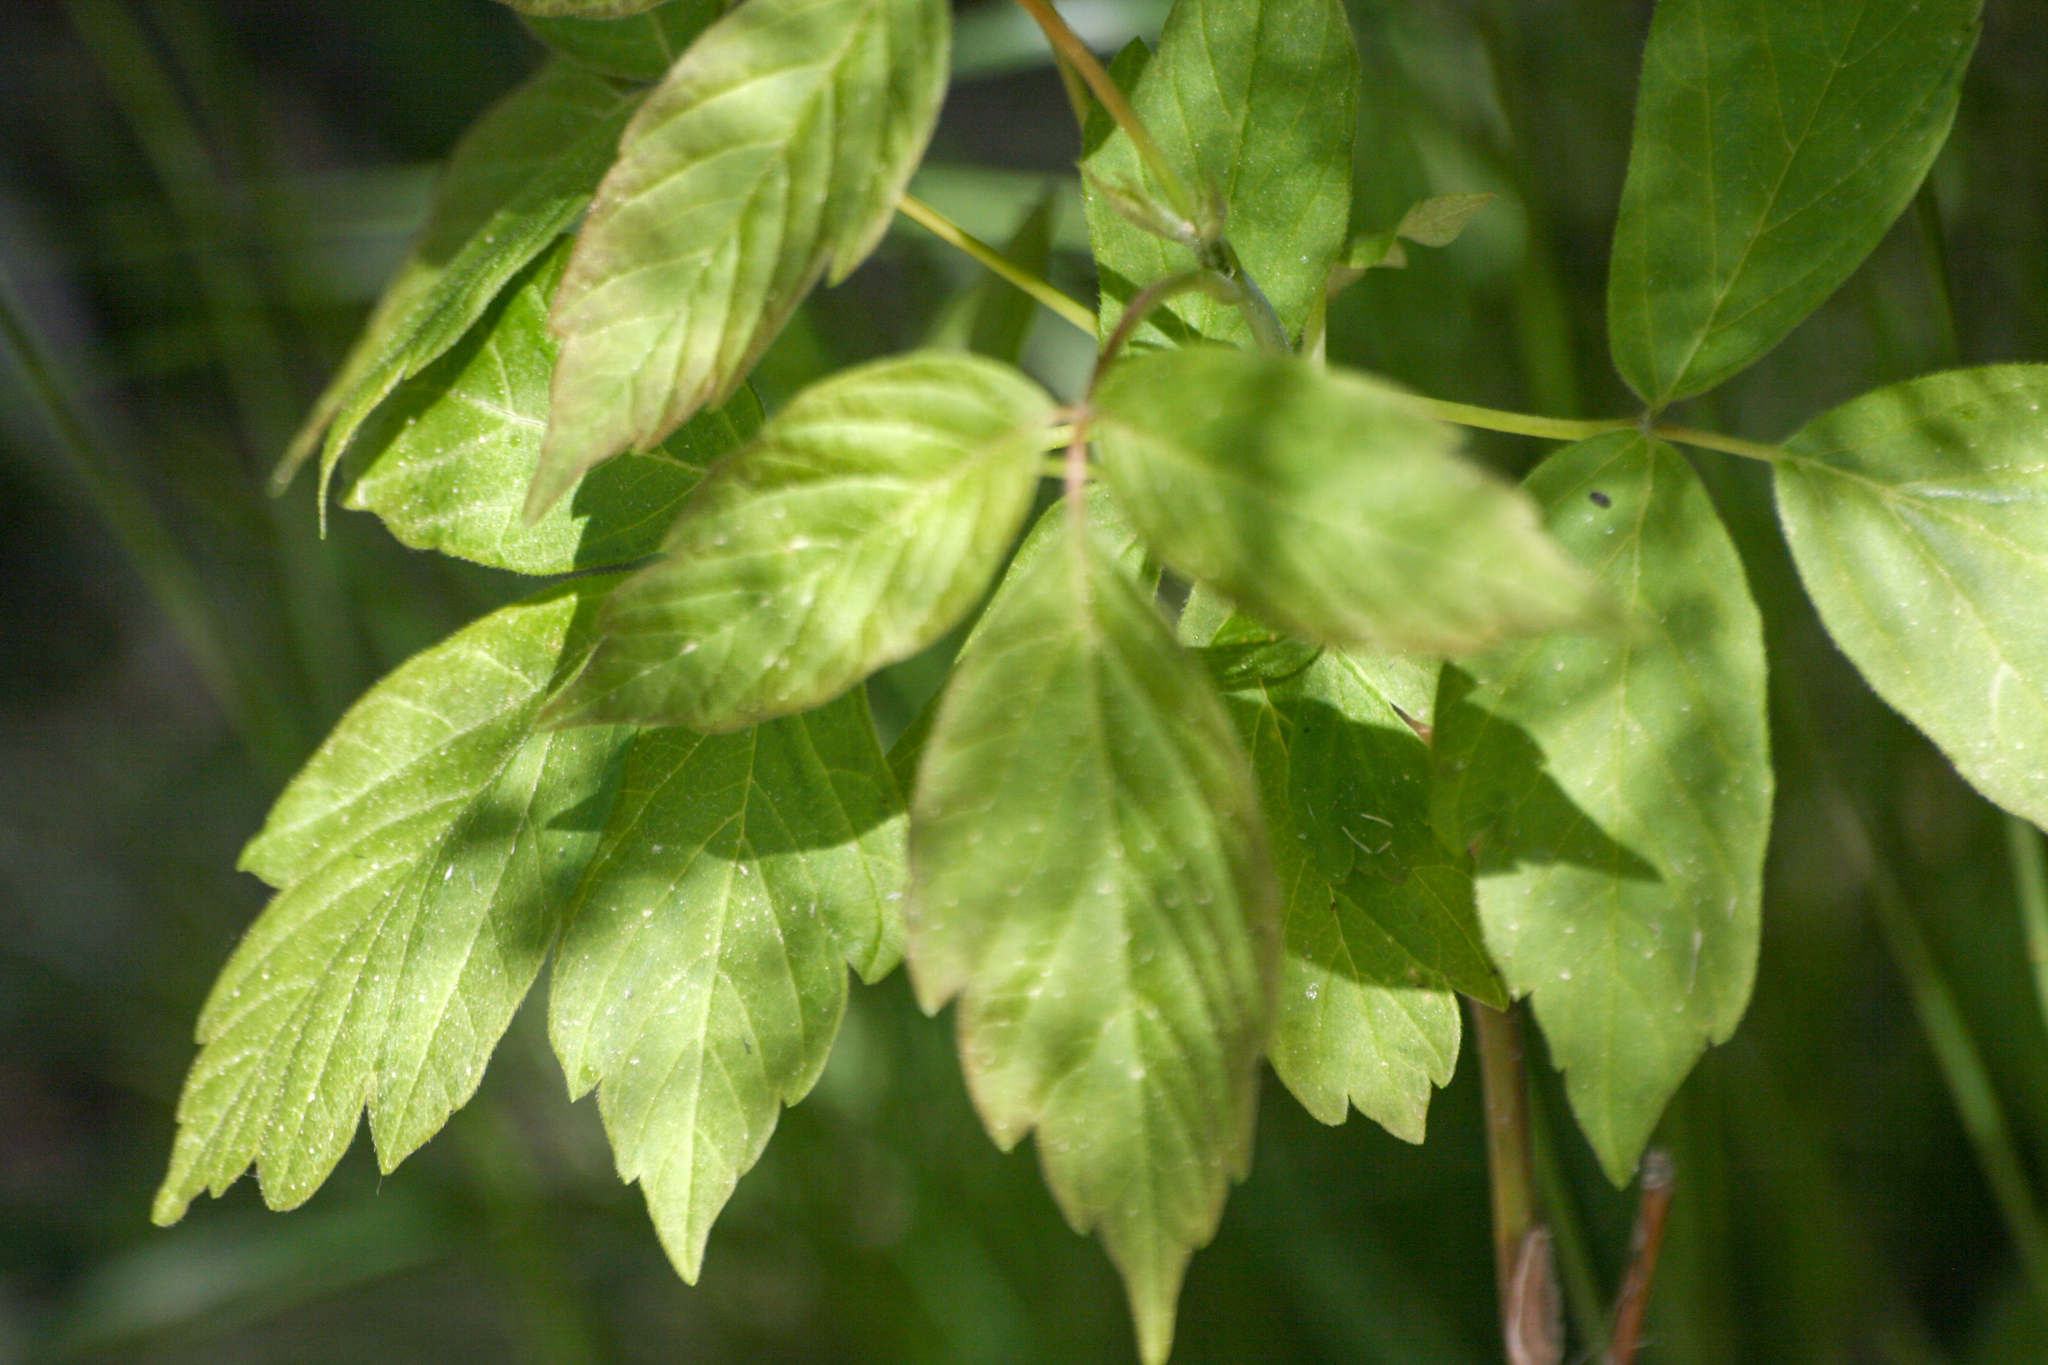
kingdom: Plantae
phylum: Tracheophyta
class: Magnoliopsida
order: Sapindales
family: Sapindaceae
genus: Acer
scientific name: Acer negundo
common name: Ashleaf maple
